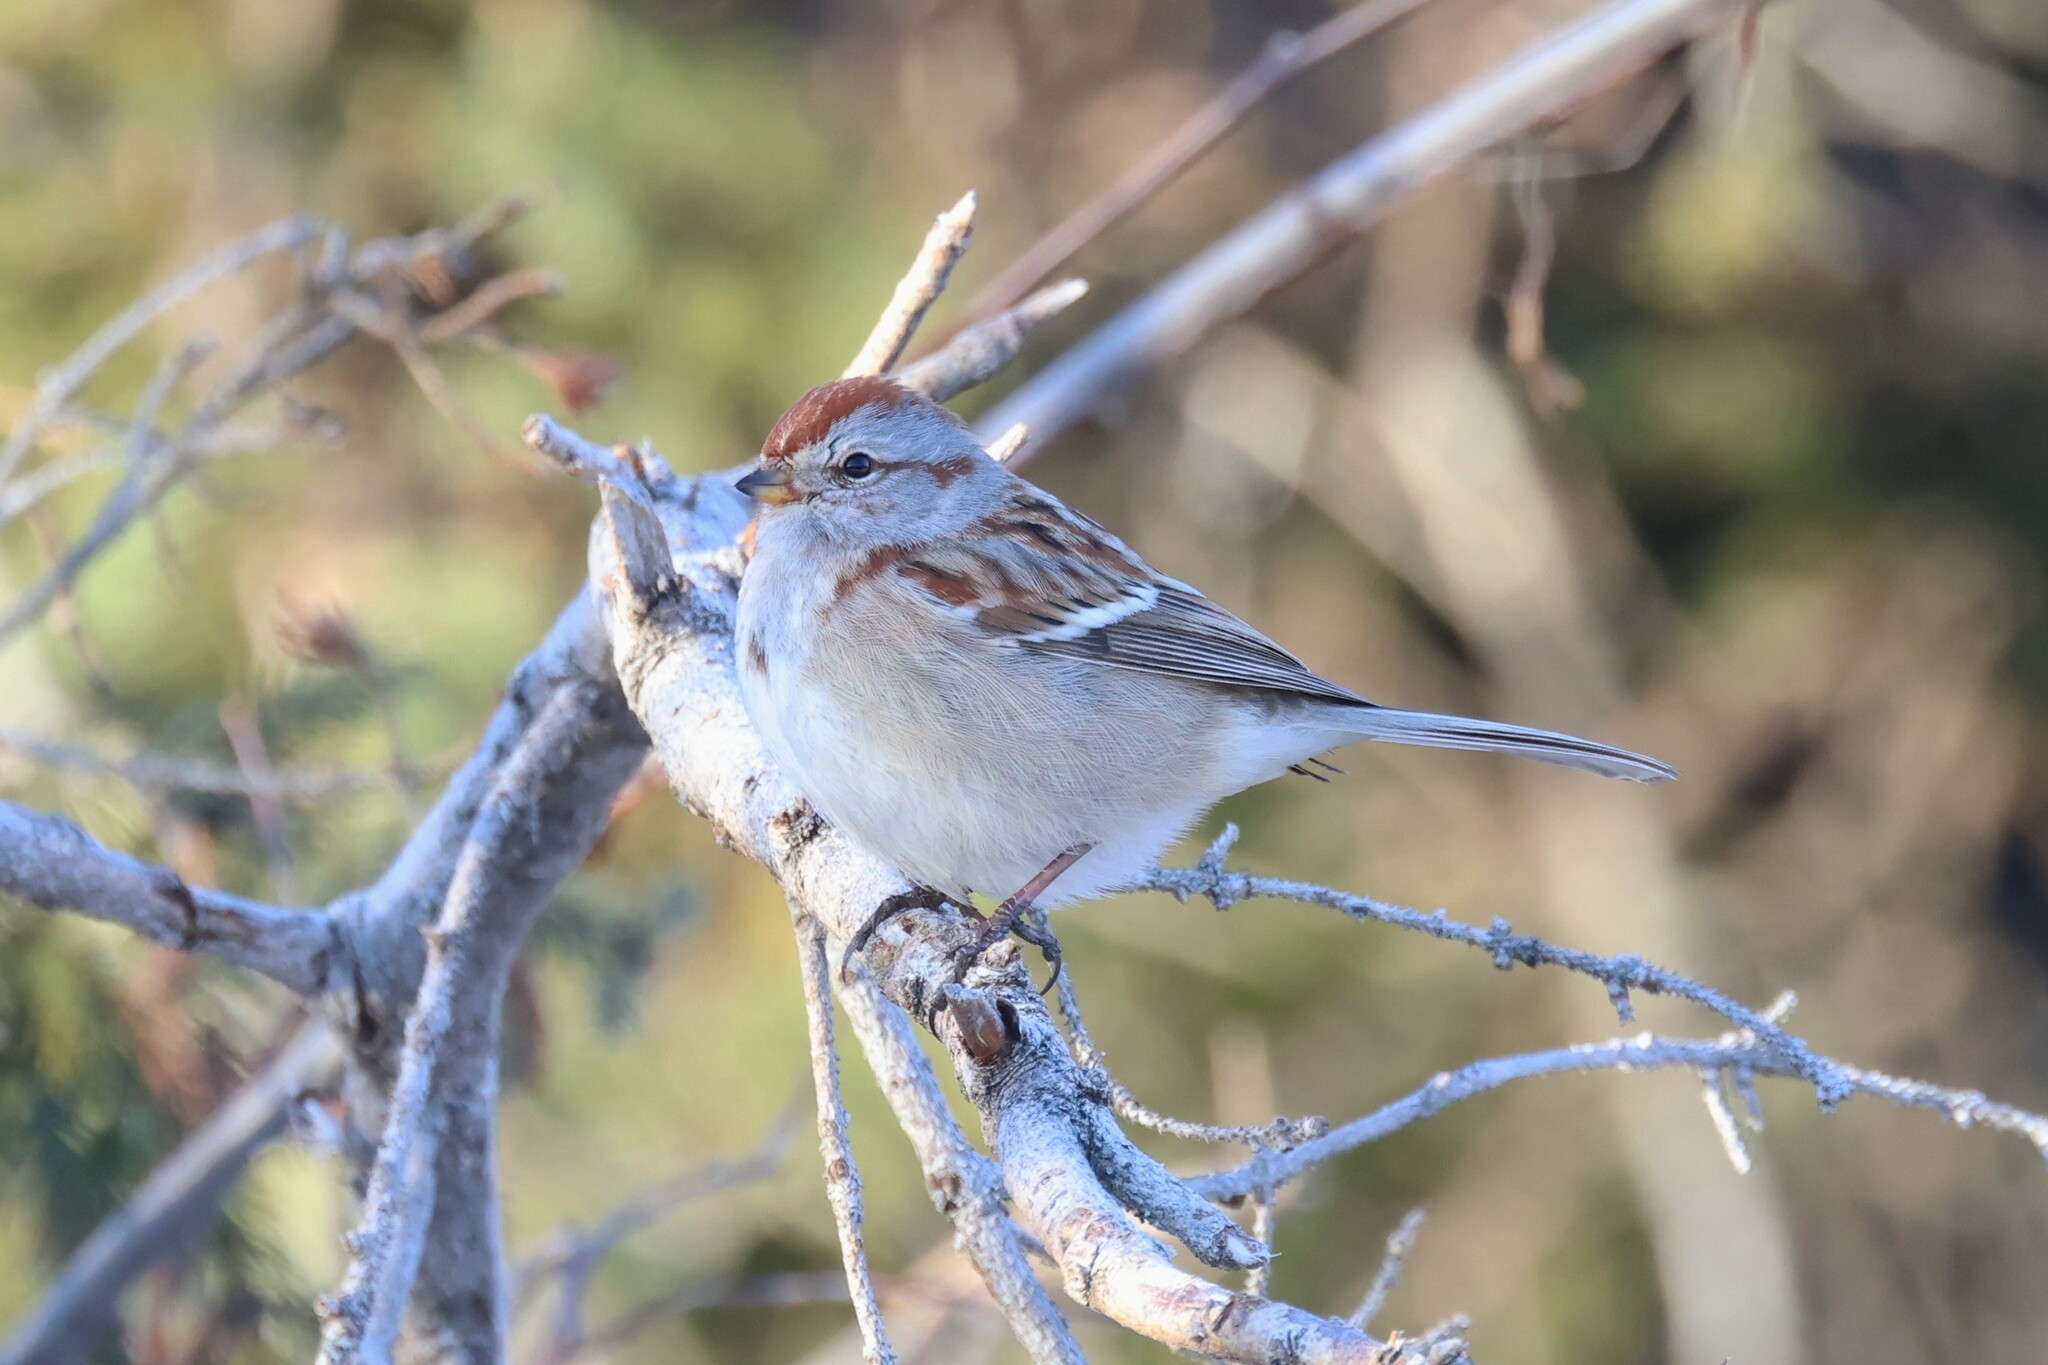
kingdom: Animalia
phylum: Chordata
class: Aves
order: Passeriformes
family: Passerellidae
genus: Spizelloides
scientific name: Spizelloides arborea
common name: American tree sparrow
